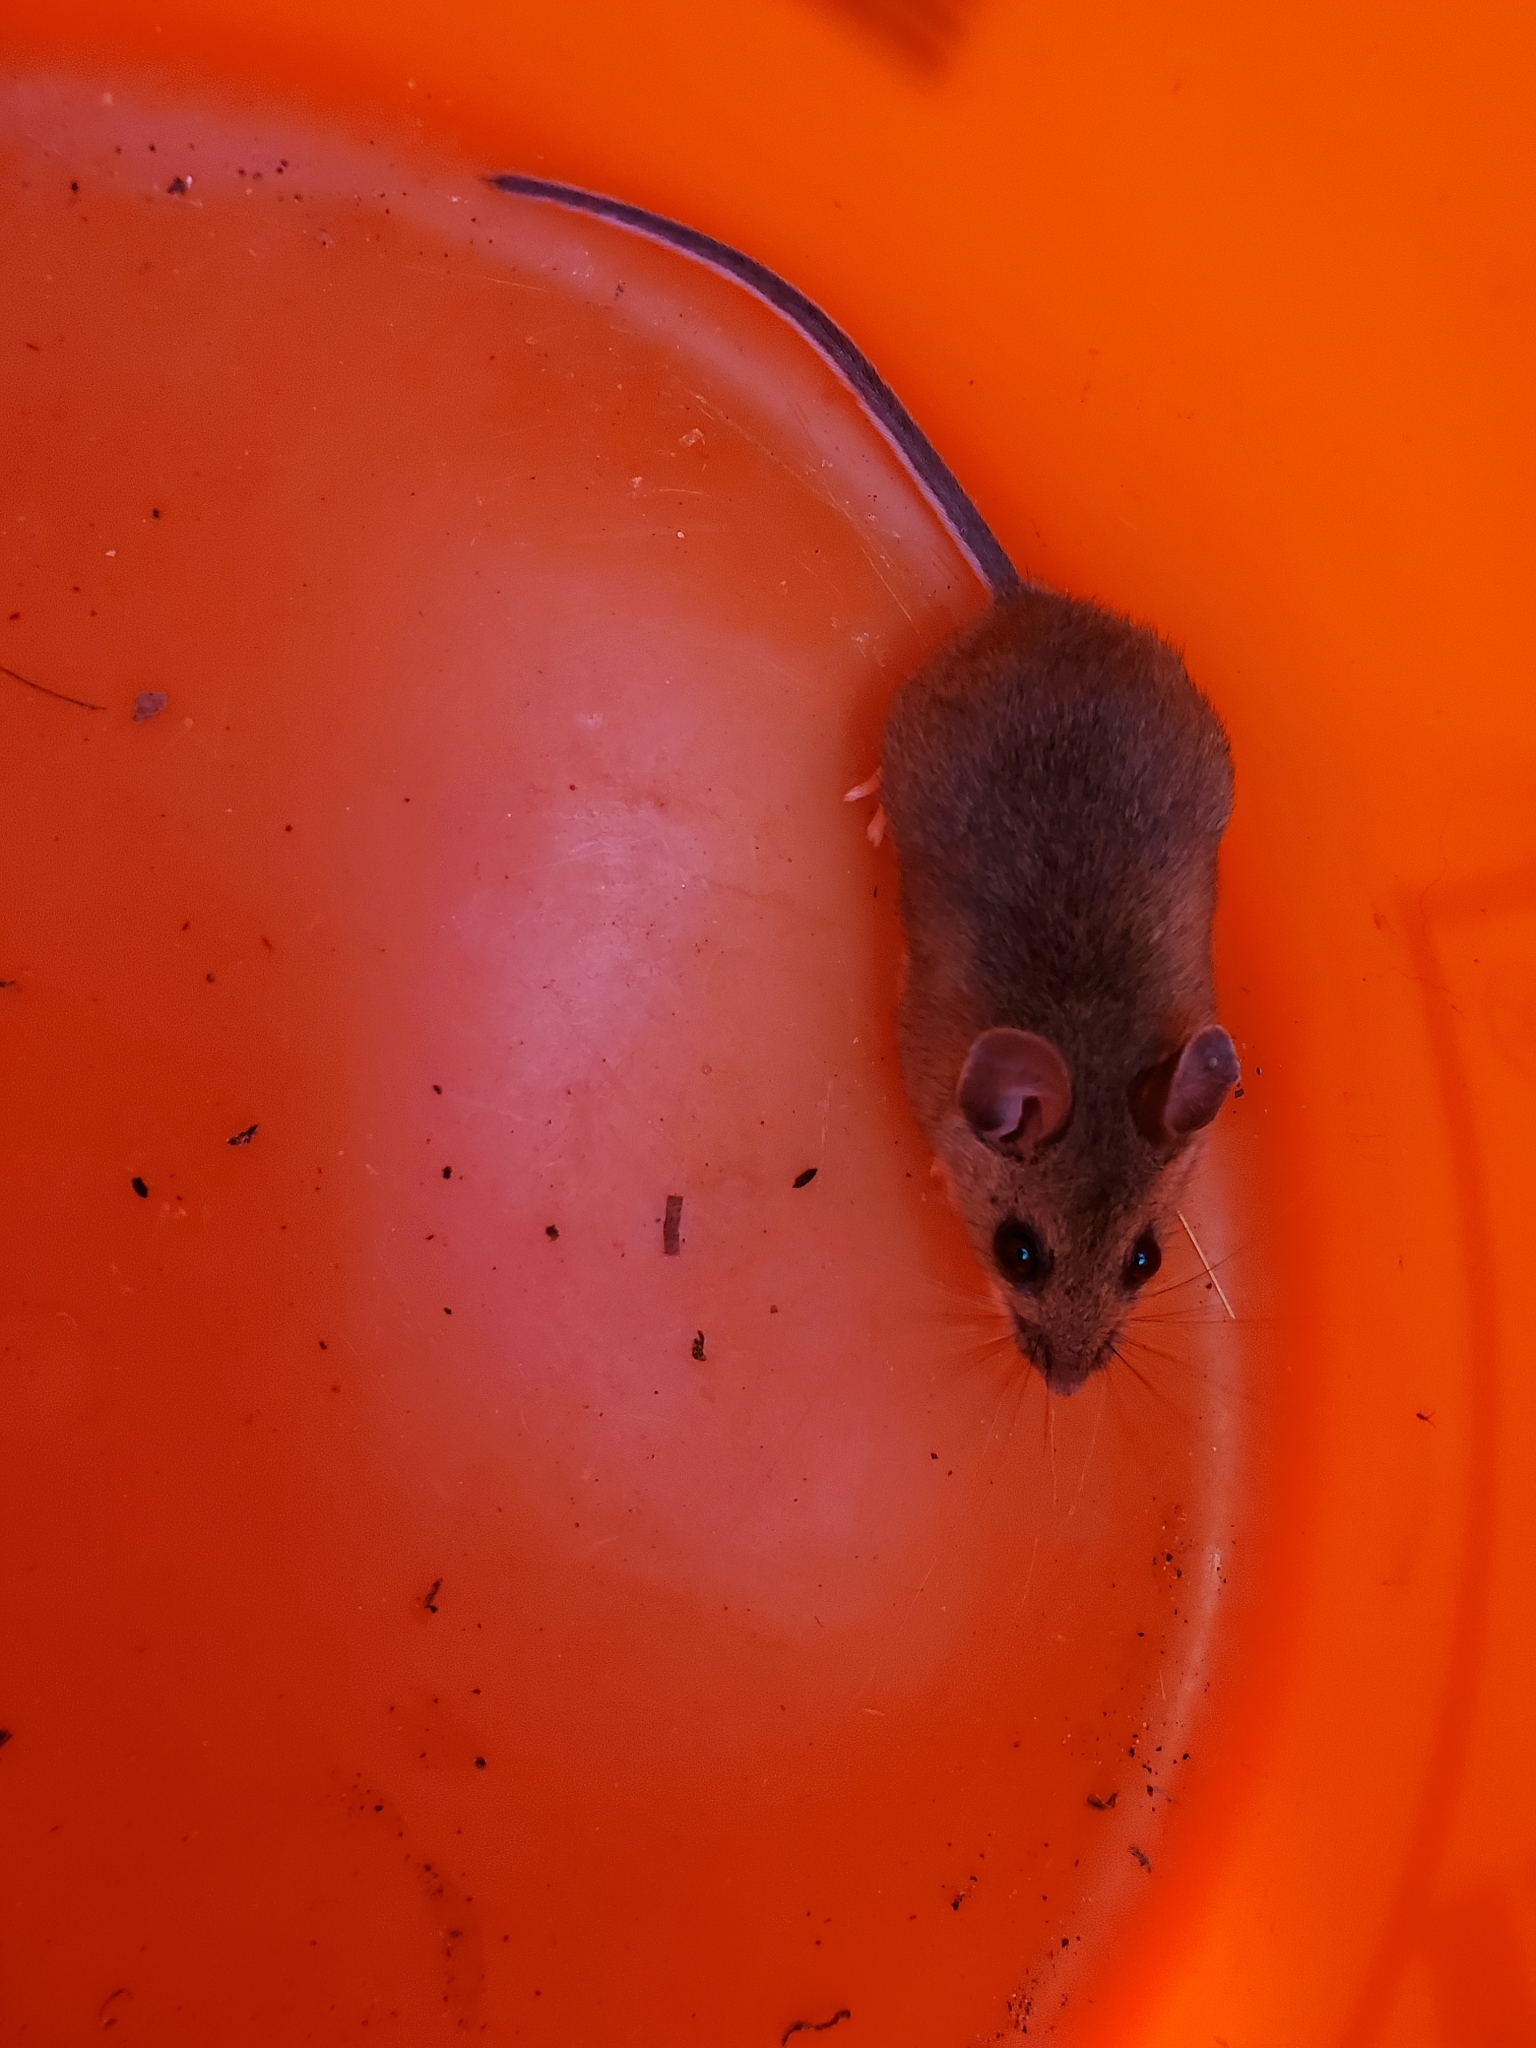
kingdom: Animalia
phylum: Chordata
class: Mammalia
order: Rodentia
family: Cricetidae
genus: Peromyscus
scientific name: Peromyscus
